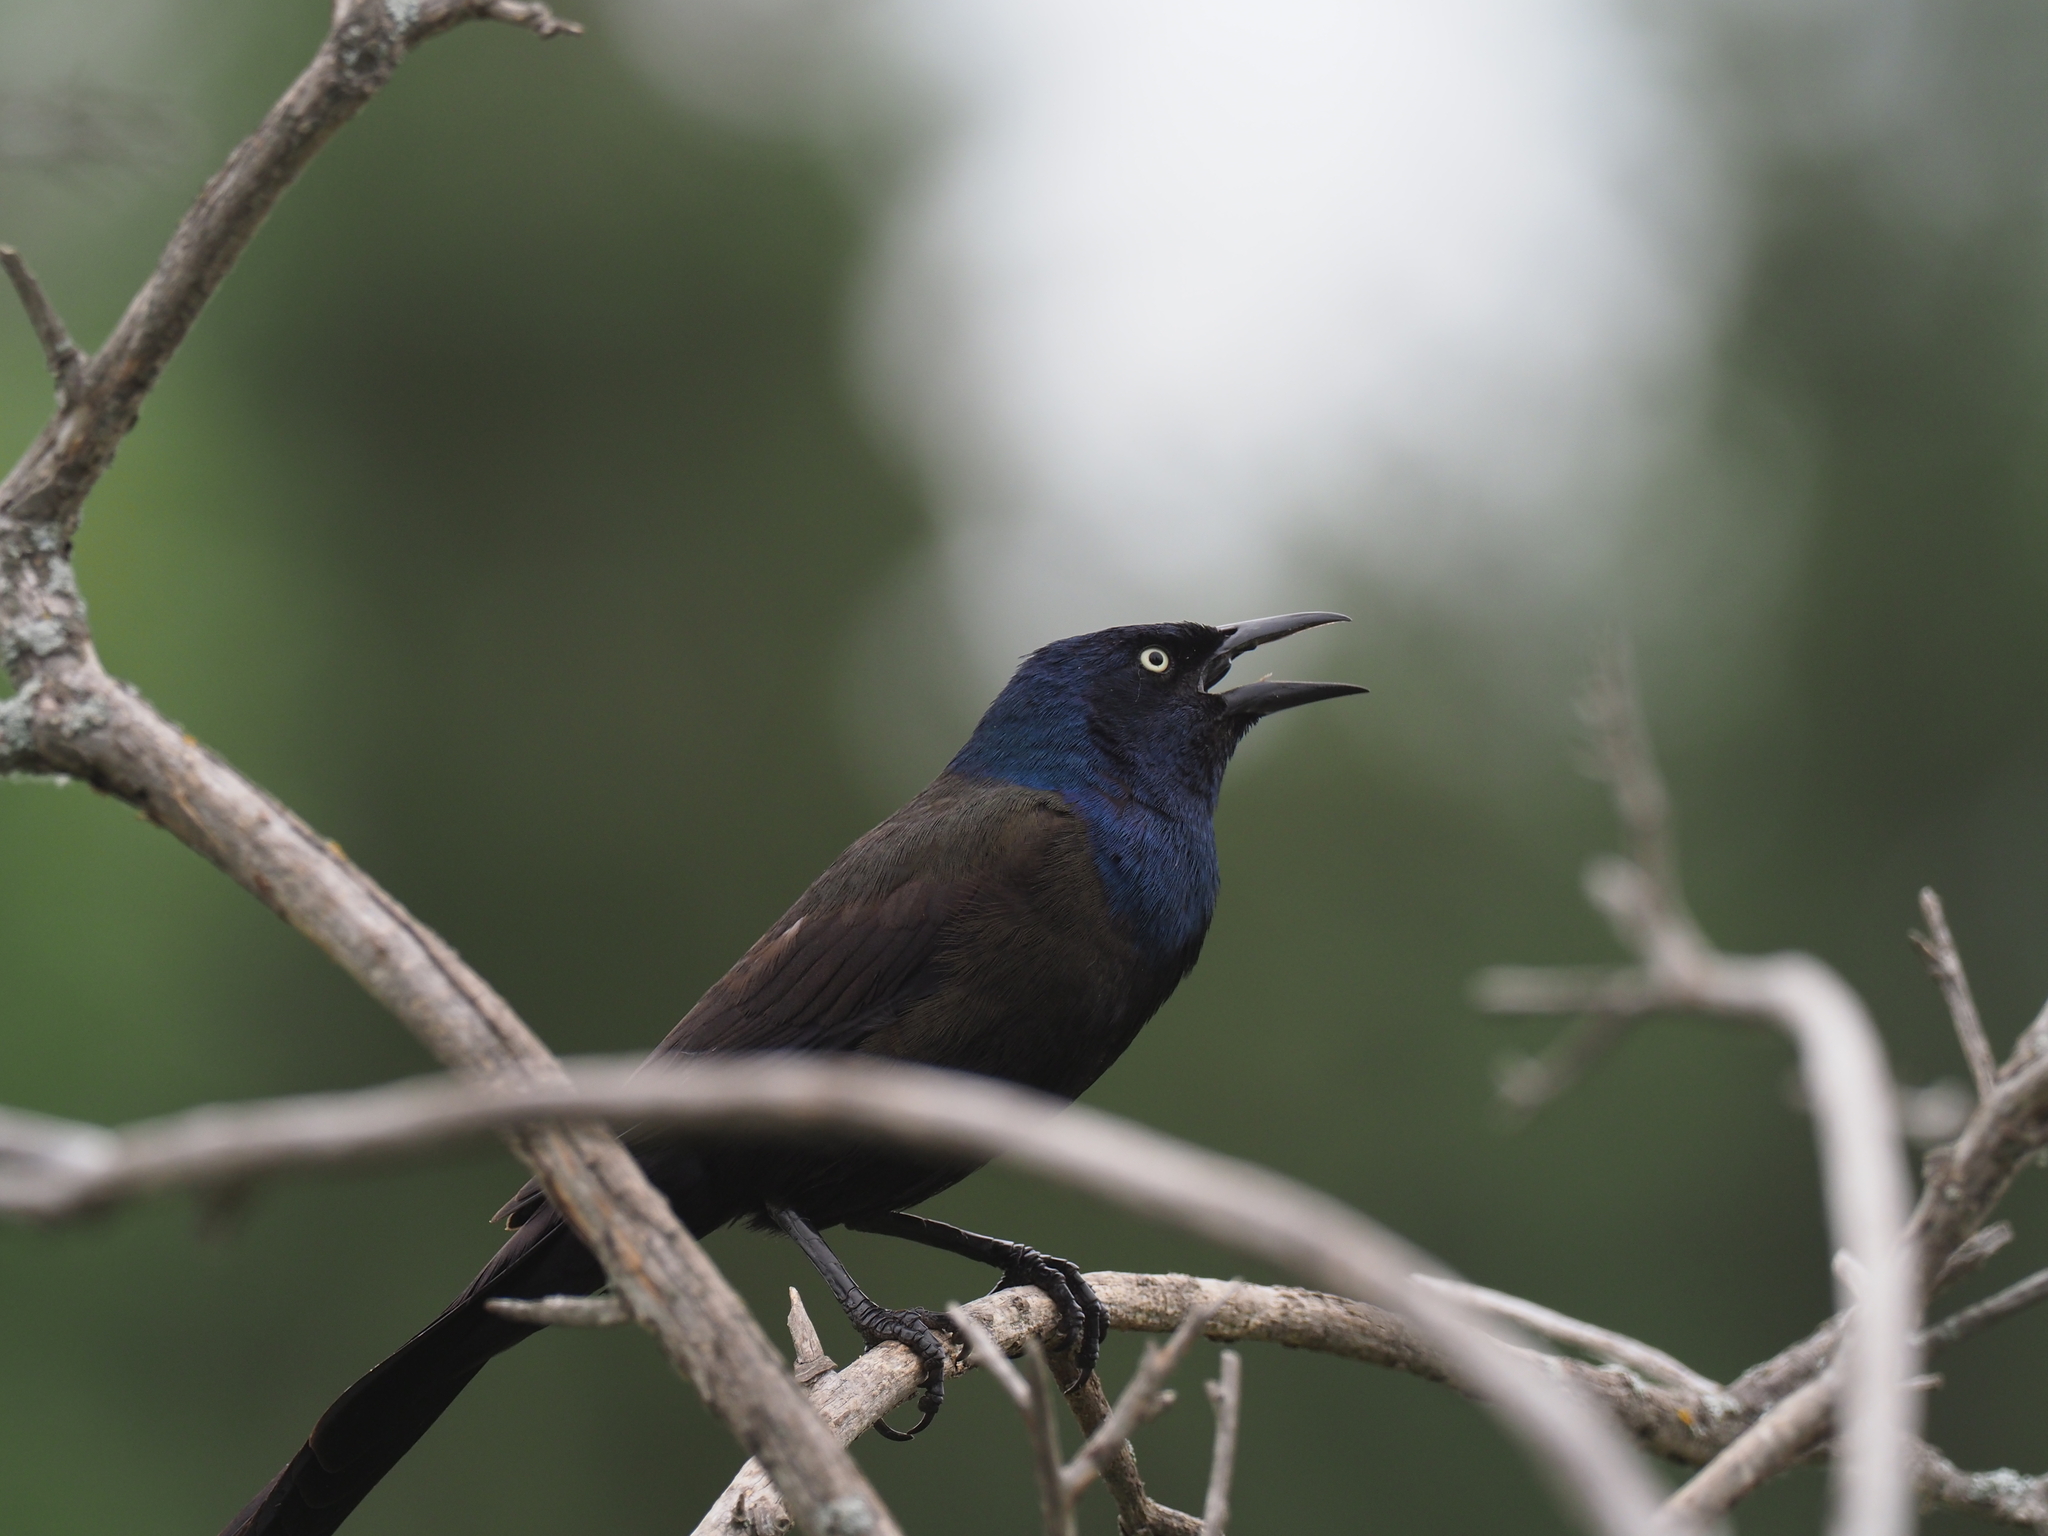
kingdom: Animalia
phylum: Chordata
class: Aves
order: Passeriformes
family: Icteridae
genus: Quiscalus
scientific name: Quiscalus quiscula
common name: Common grackle
